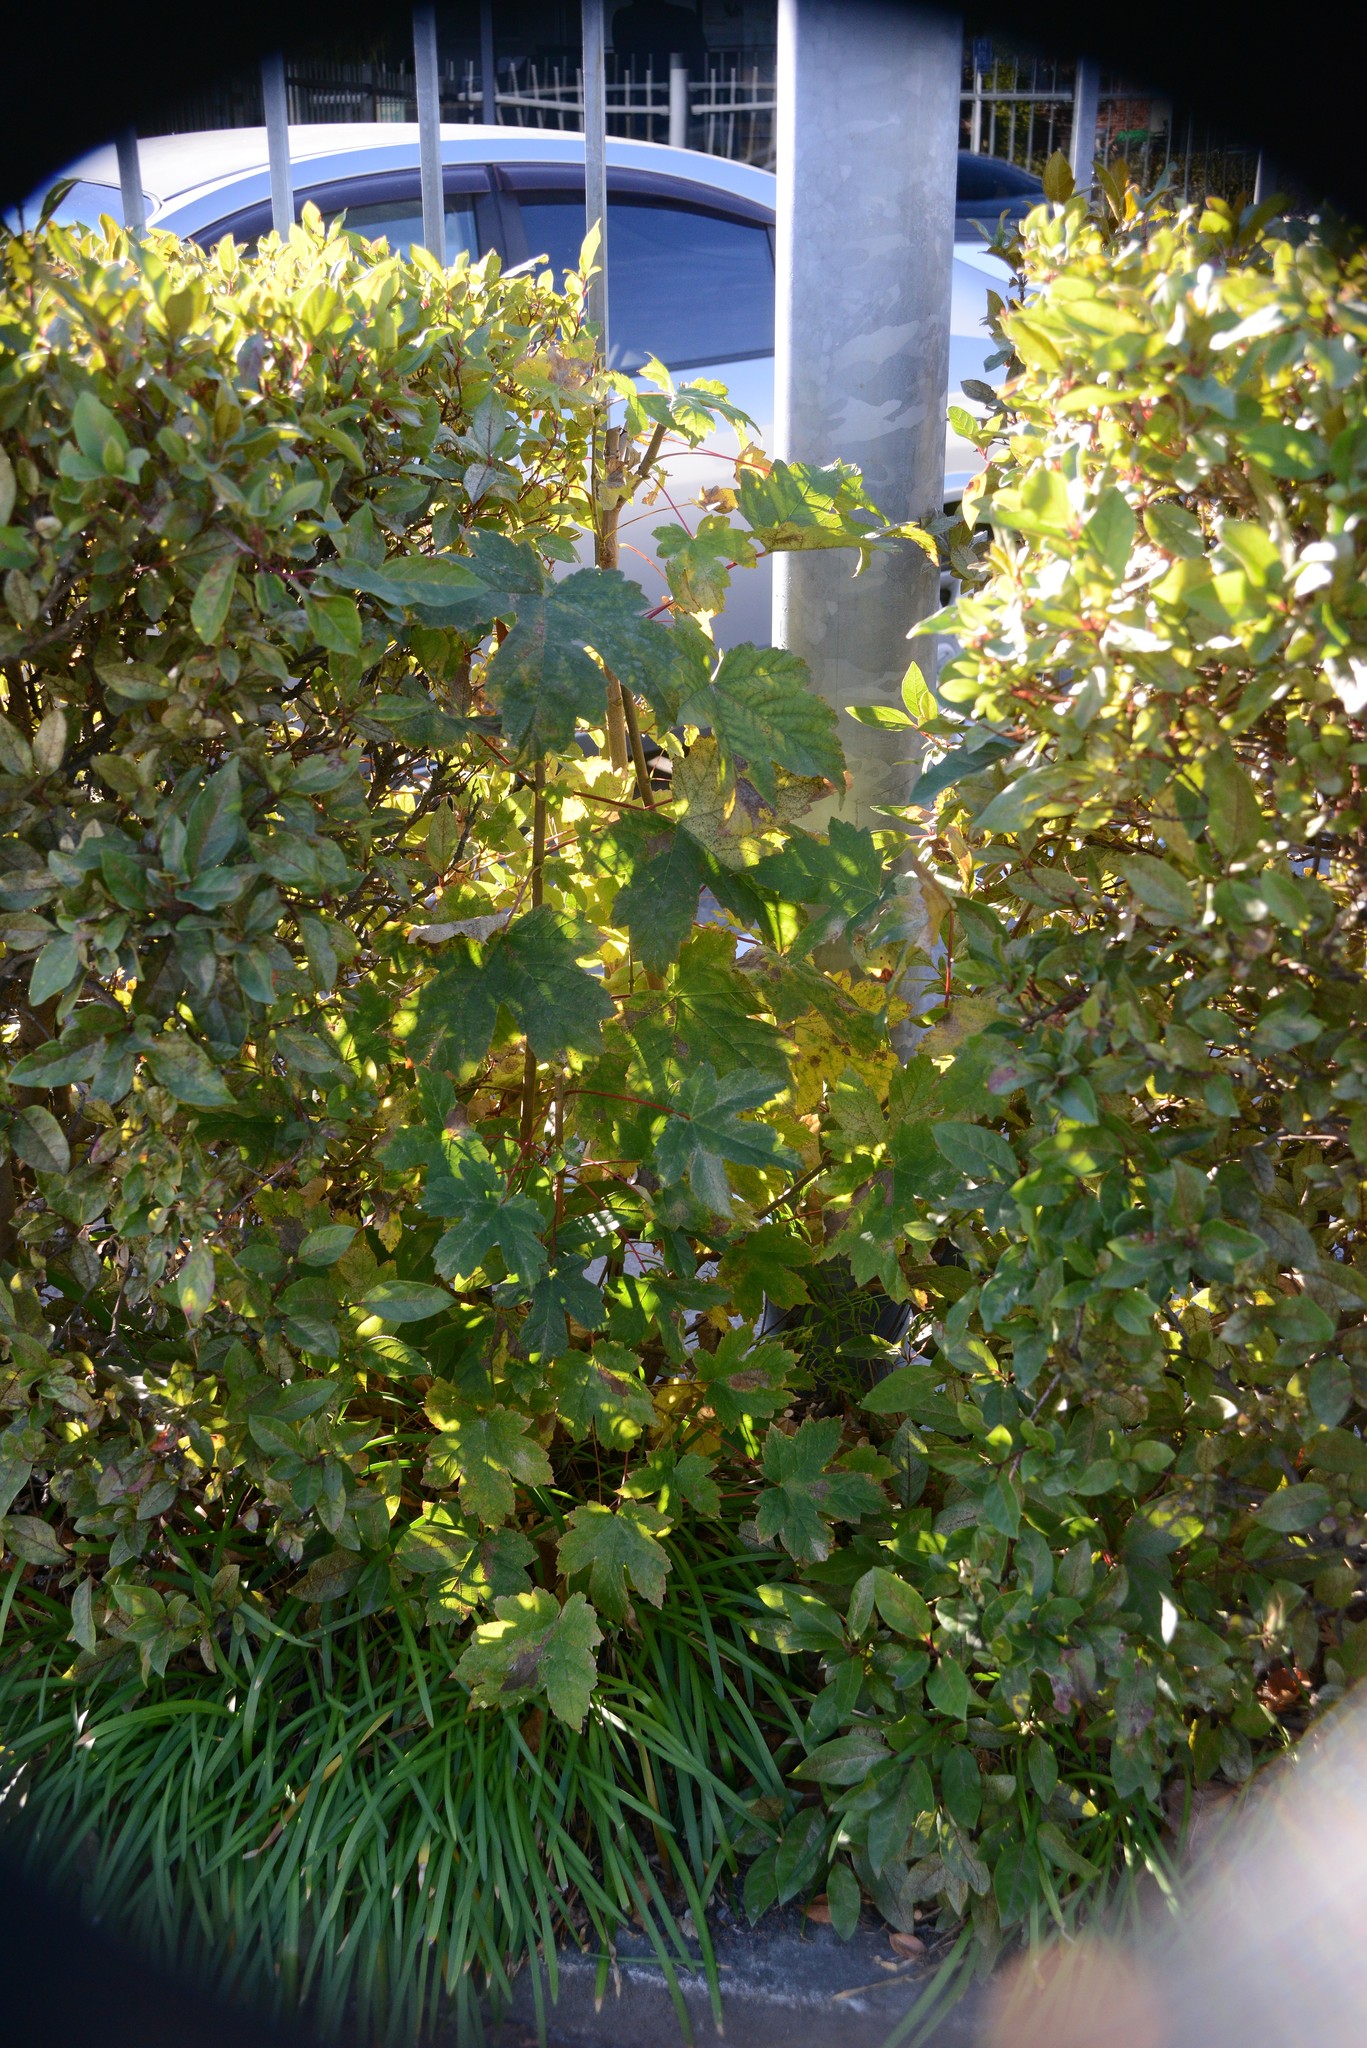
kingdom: Plantae
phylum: Tracheophyta
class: Magnoliopsida
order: Sapindales
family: Sapindaceae
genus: Acer
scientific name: Acer pseudoplatanus
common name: Sycamore
